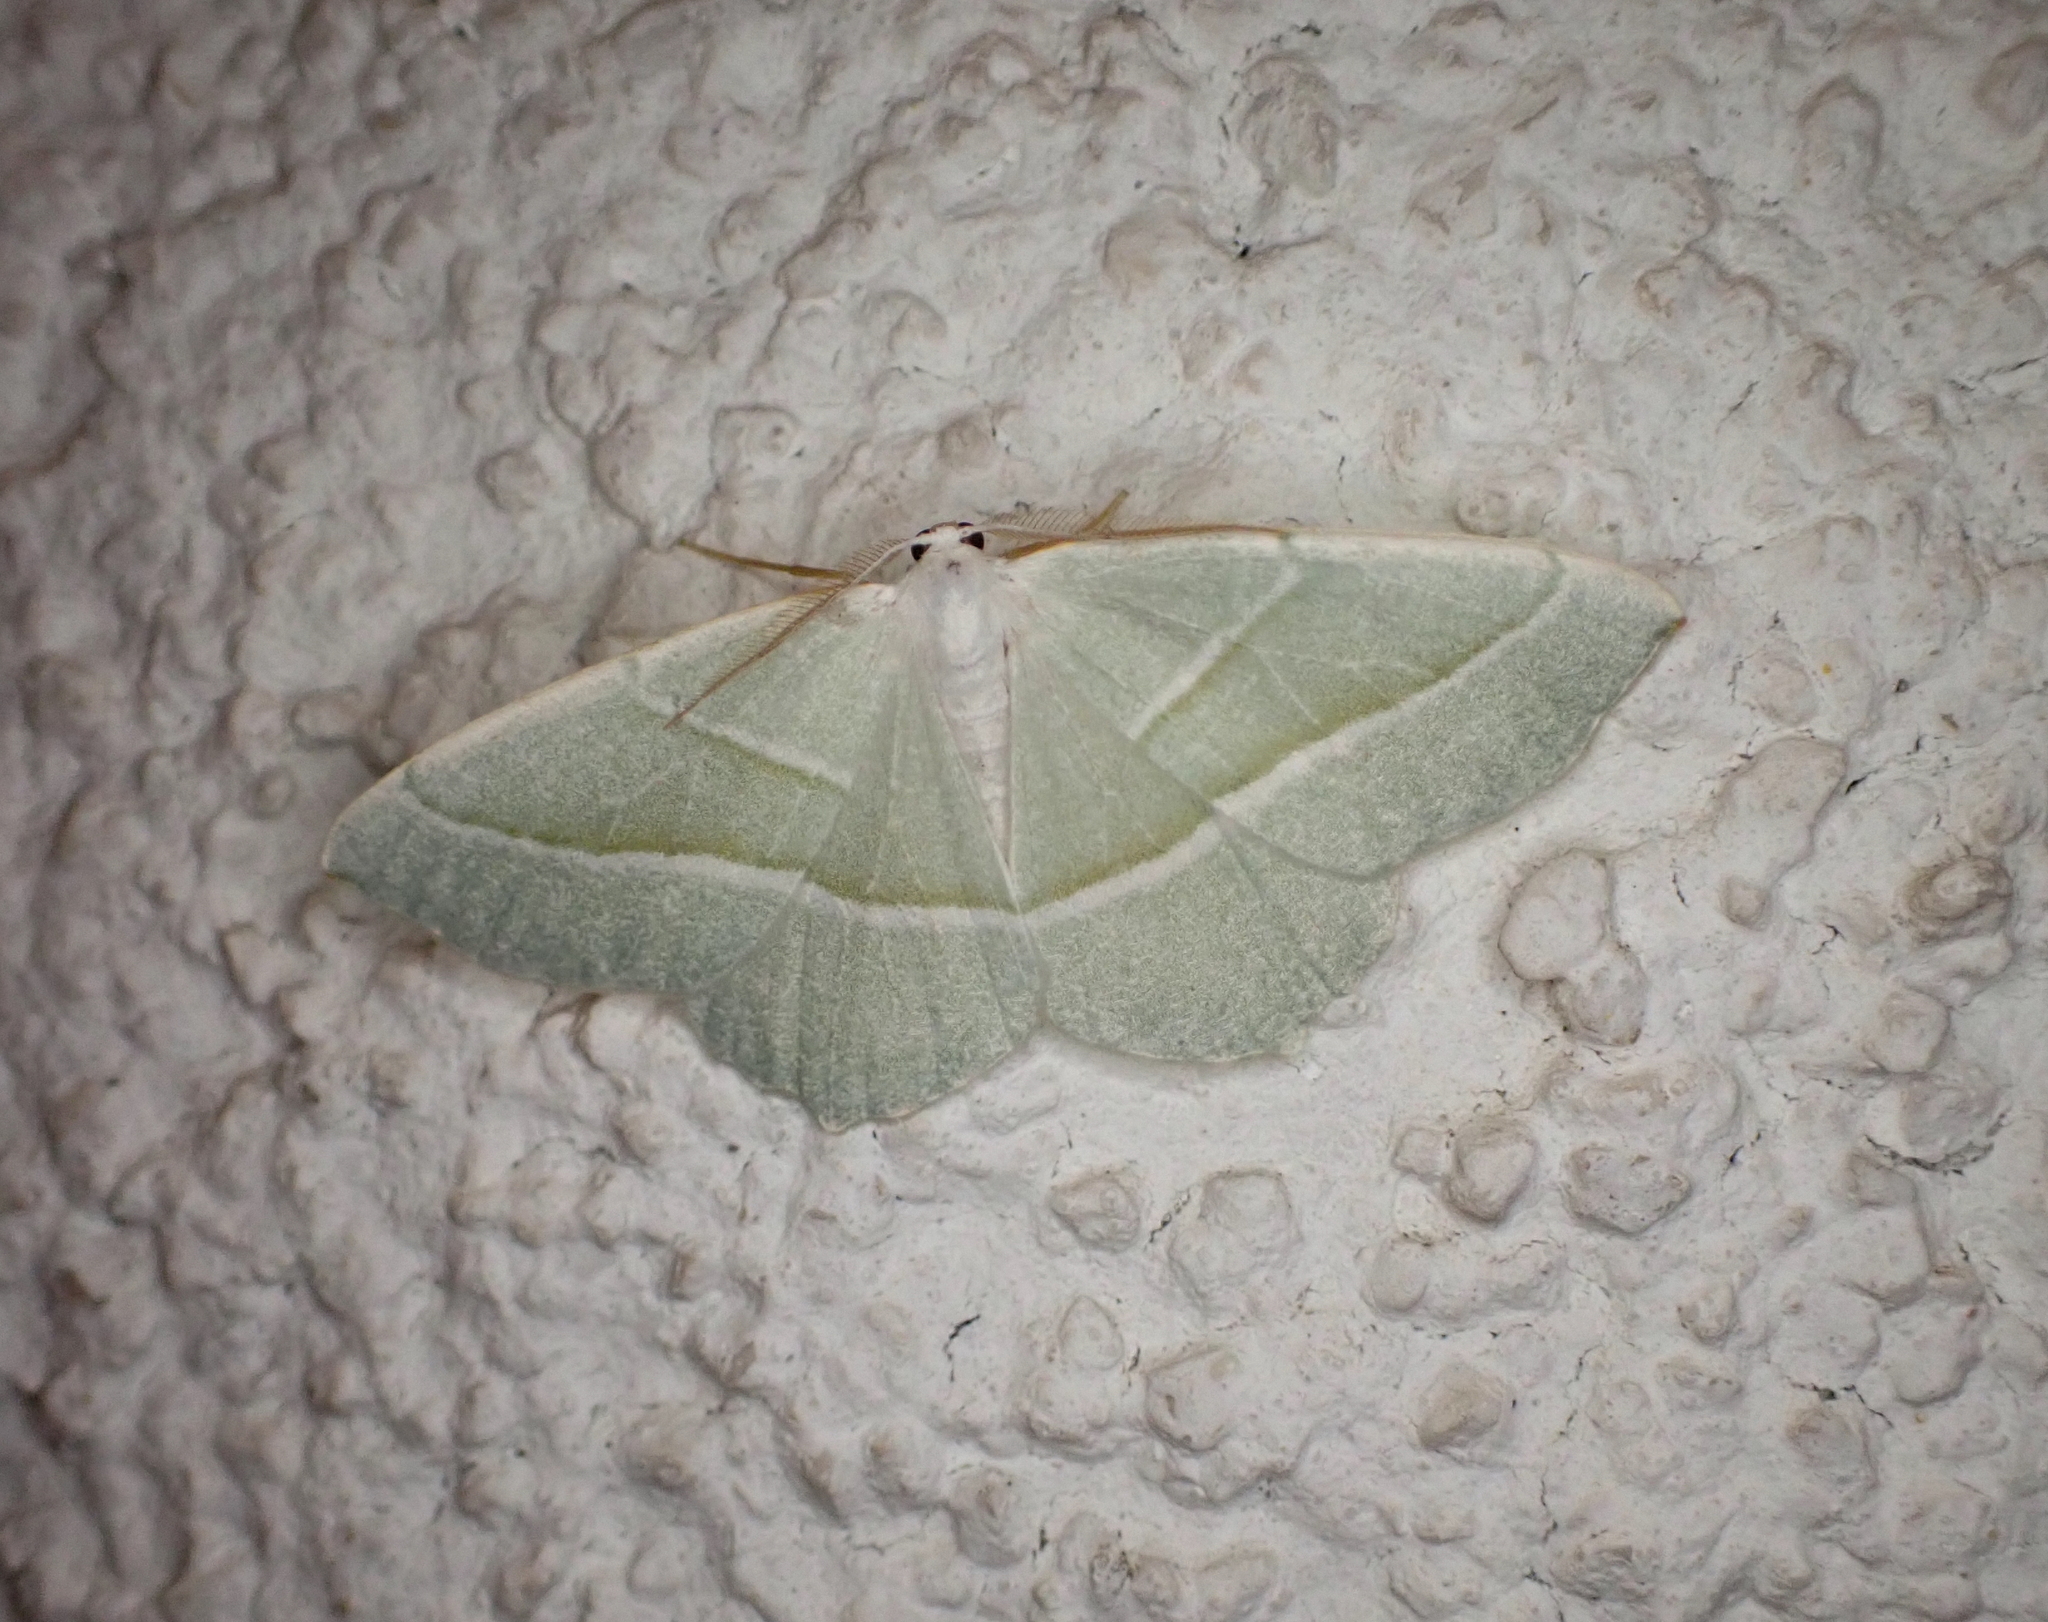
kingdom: Animalia
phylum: Arthropoda
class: Insecta
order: Lepidoptera
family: Geometridae
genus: Campaea
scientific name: Campaea margaritaria
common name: Light emerald
